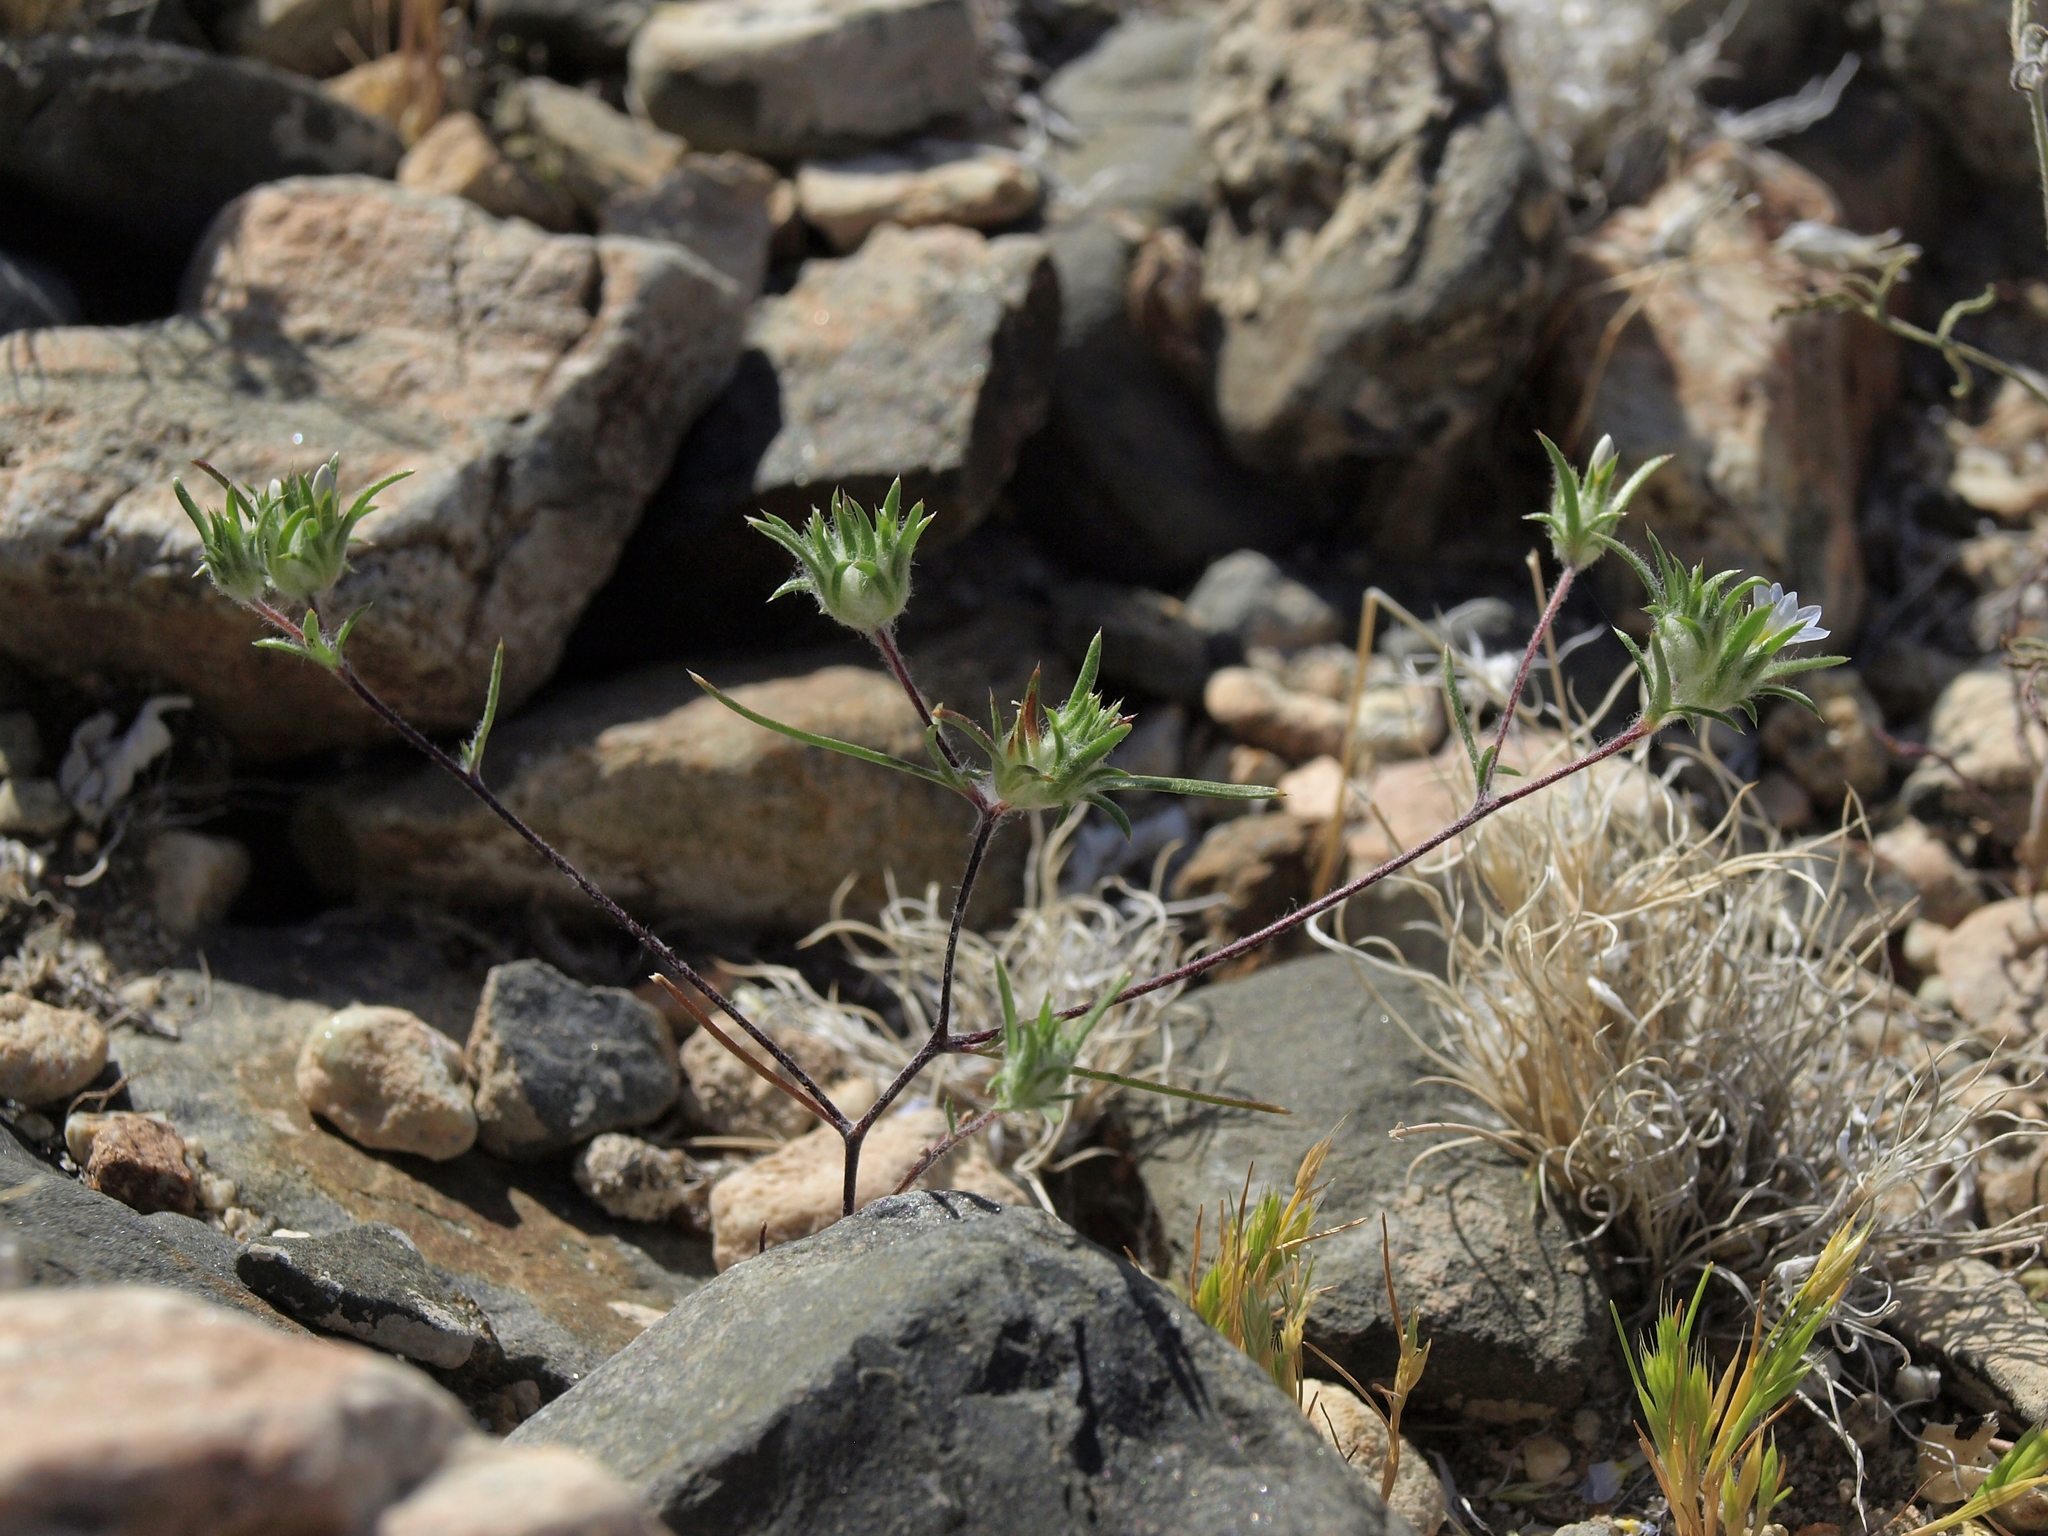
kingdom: Plantae
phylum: Tracheophyta
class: Magnoliopsida
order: Ericales
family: Polemoniaceae
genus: Eriastrum
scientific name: Eriastrum diffusum
